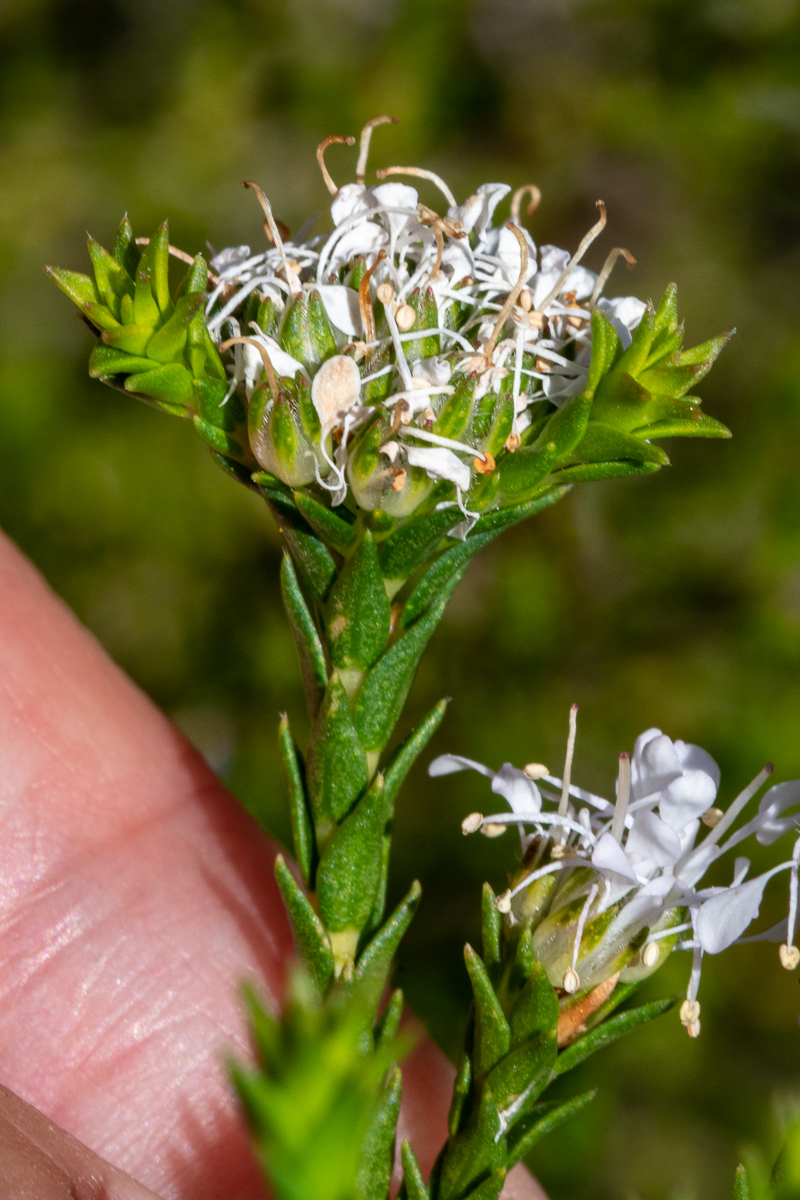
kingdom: Plantae
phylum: Tracheophyta
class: Magnoliopsida
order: Sapindales
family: Rutaceae
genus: Agathosma
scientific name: Agathosma imbricata
